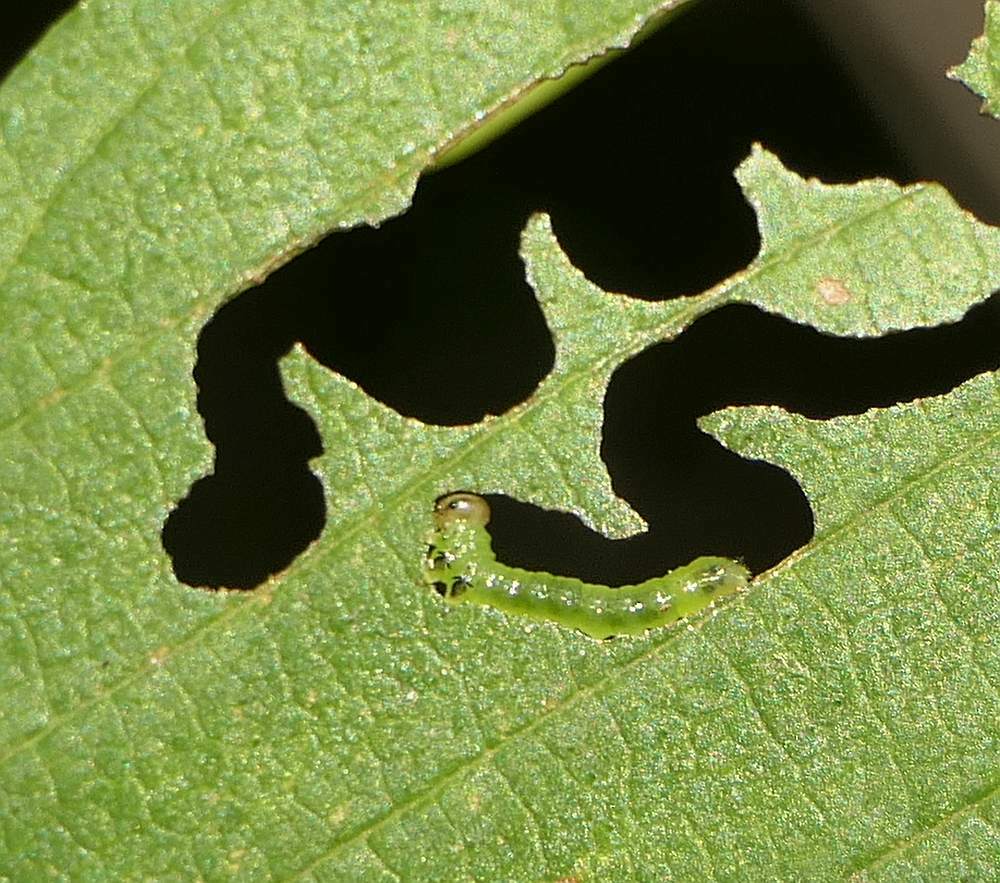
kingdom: Animalia
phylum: Arthropoda
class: Insecta
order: Hymenoptera
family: Argidae
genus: Aproceros
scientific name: Aproceros leucopoda
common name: Zig-zag elm sawfly
